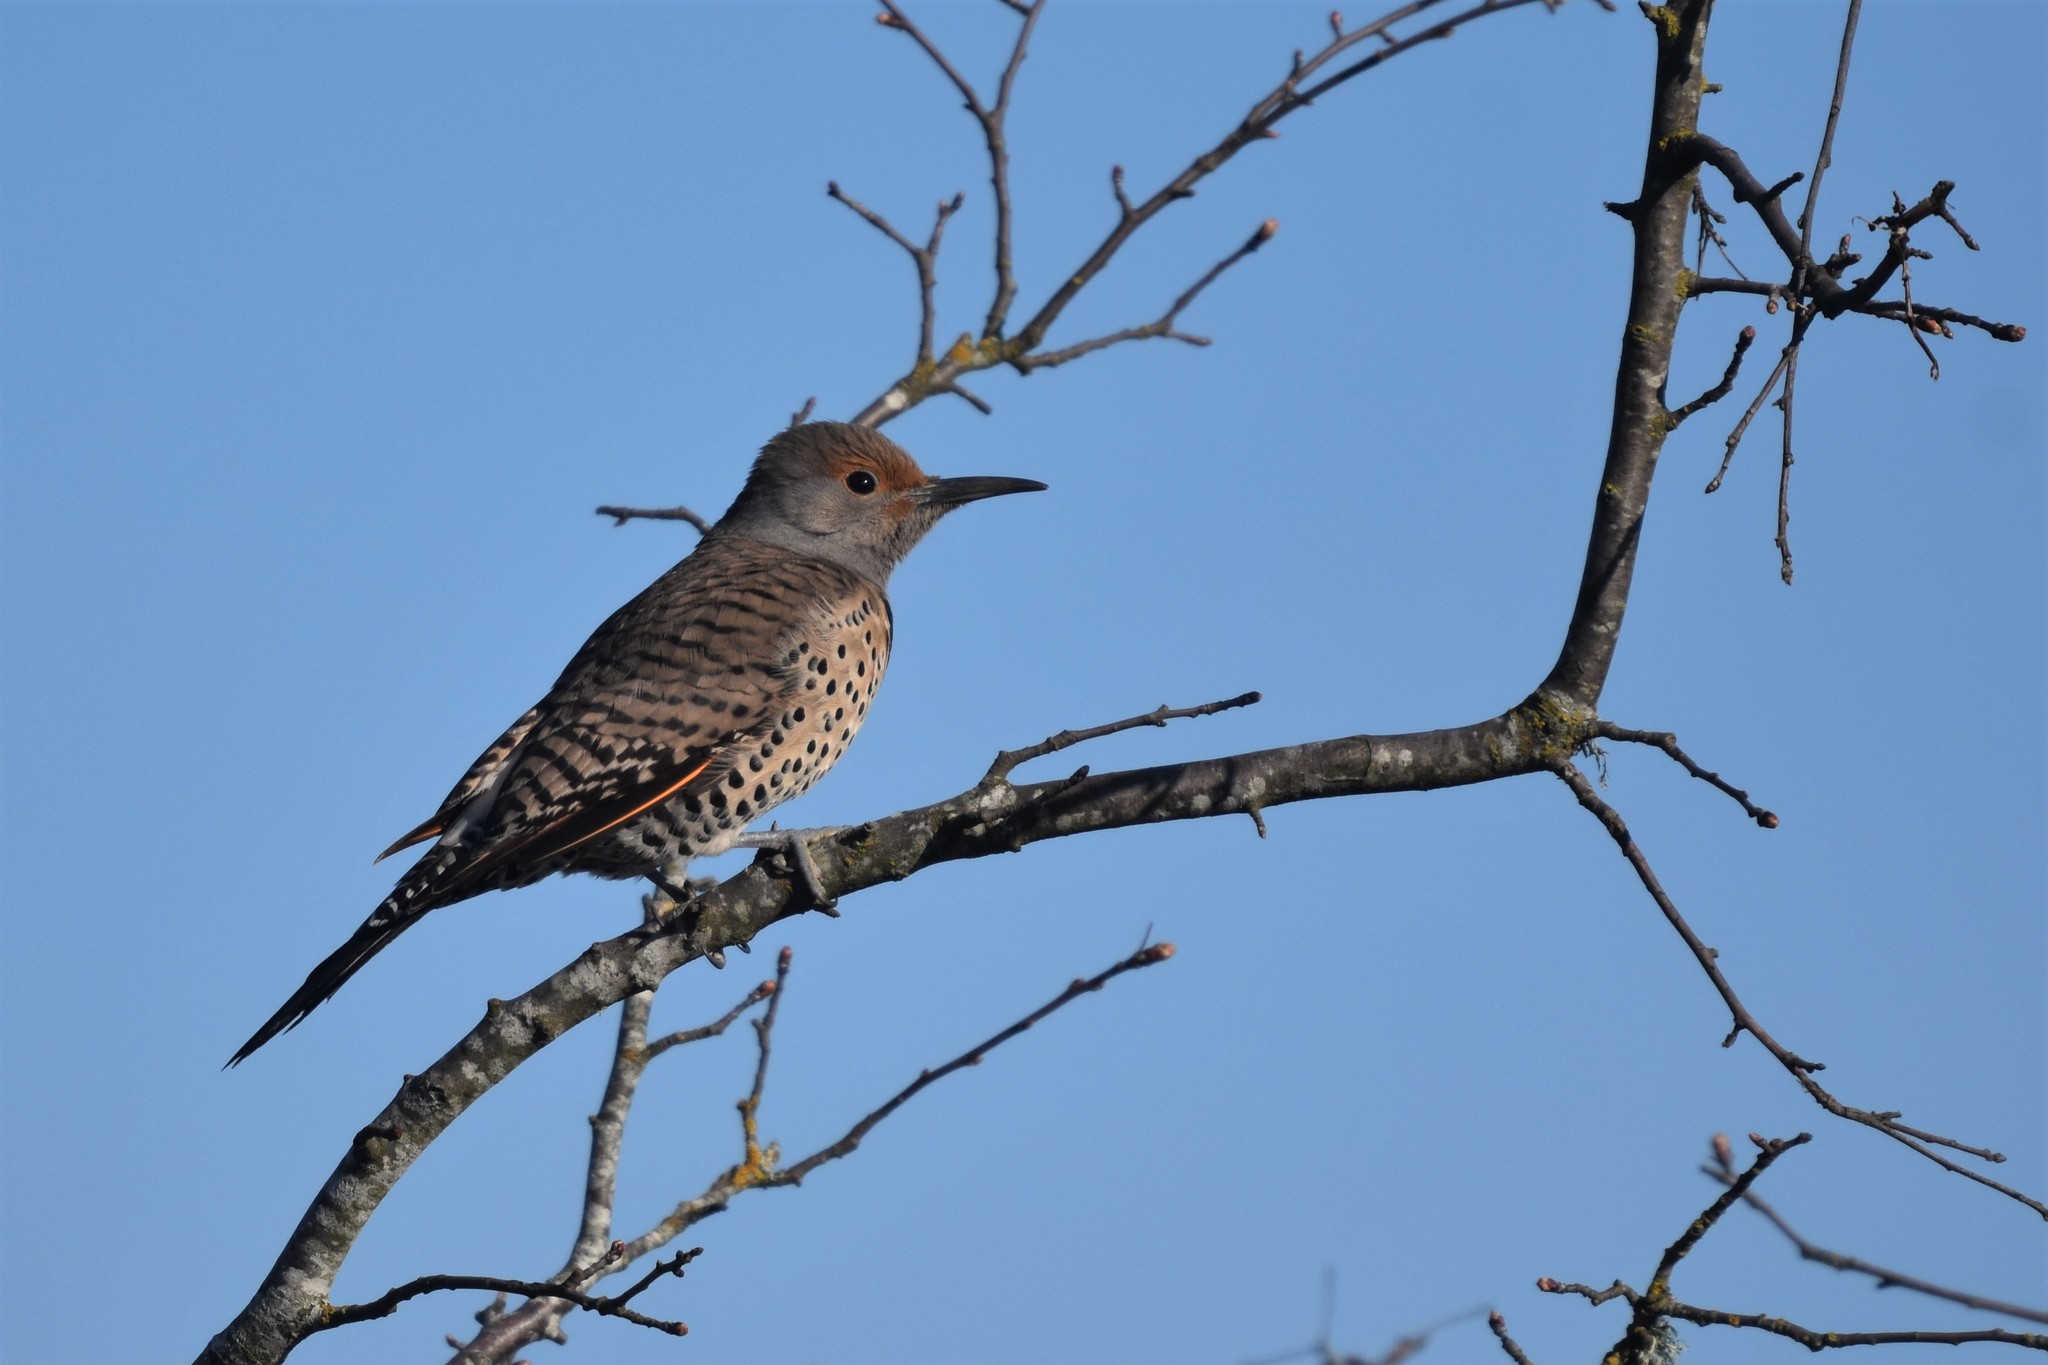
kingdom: Animalia
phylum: Chordata
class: Aves
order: Piciformes
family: Picidae
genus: Colaptes
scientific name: Colaptes auratus
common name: Northern flicker
